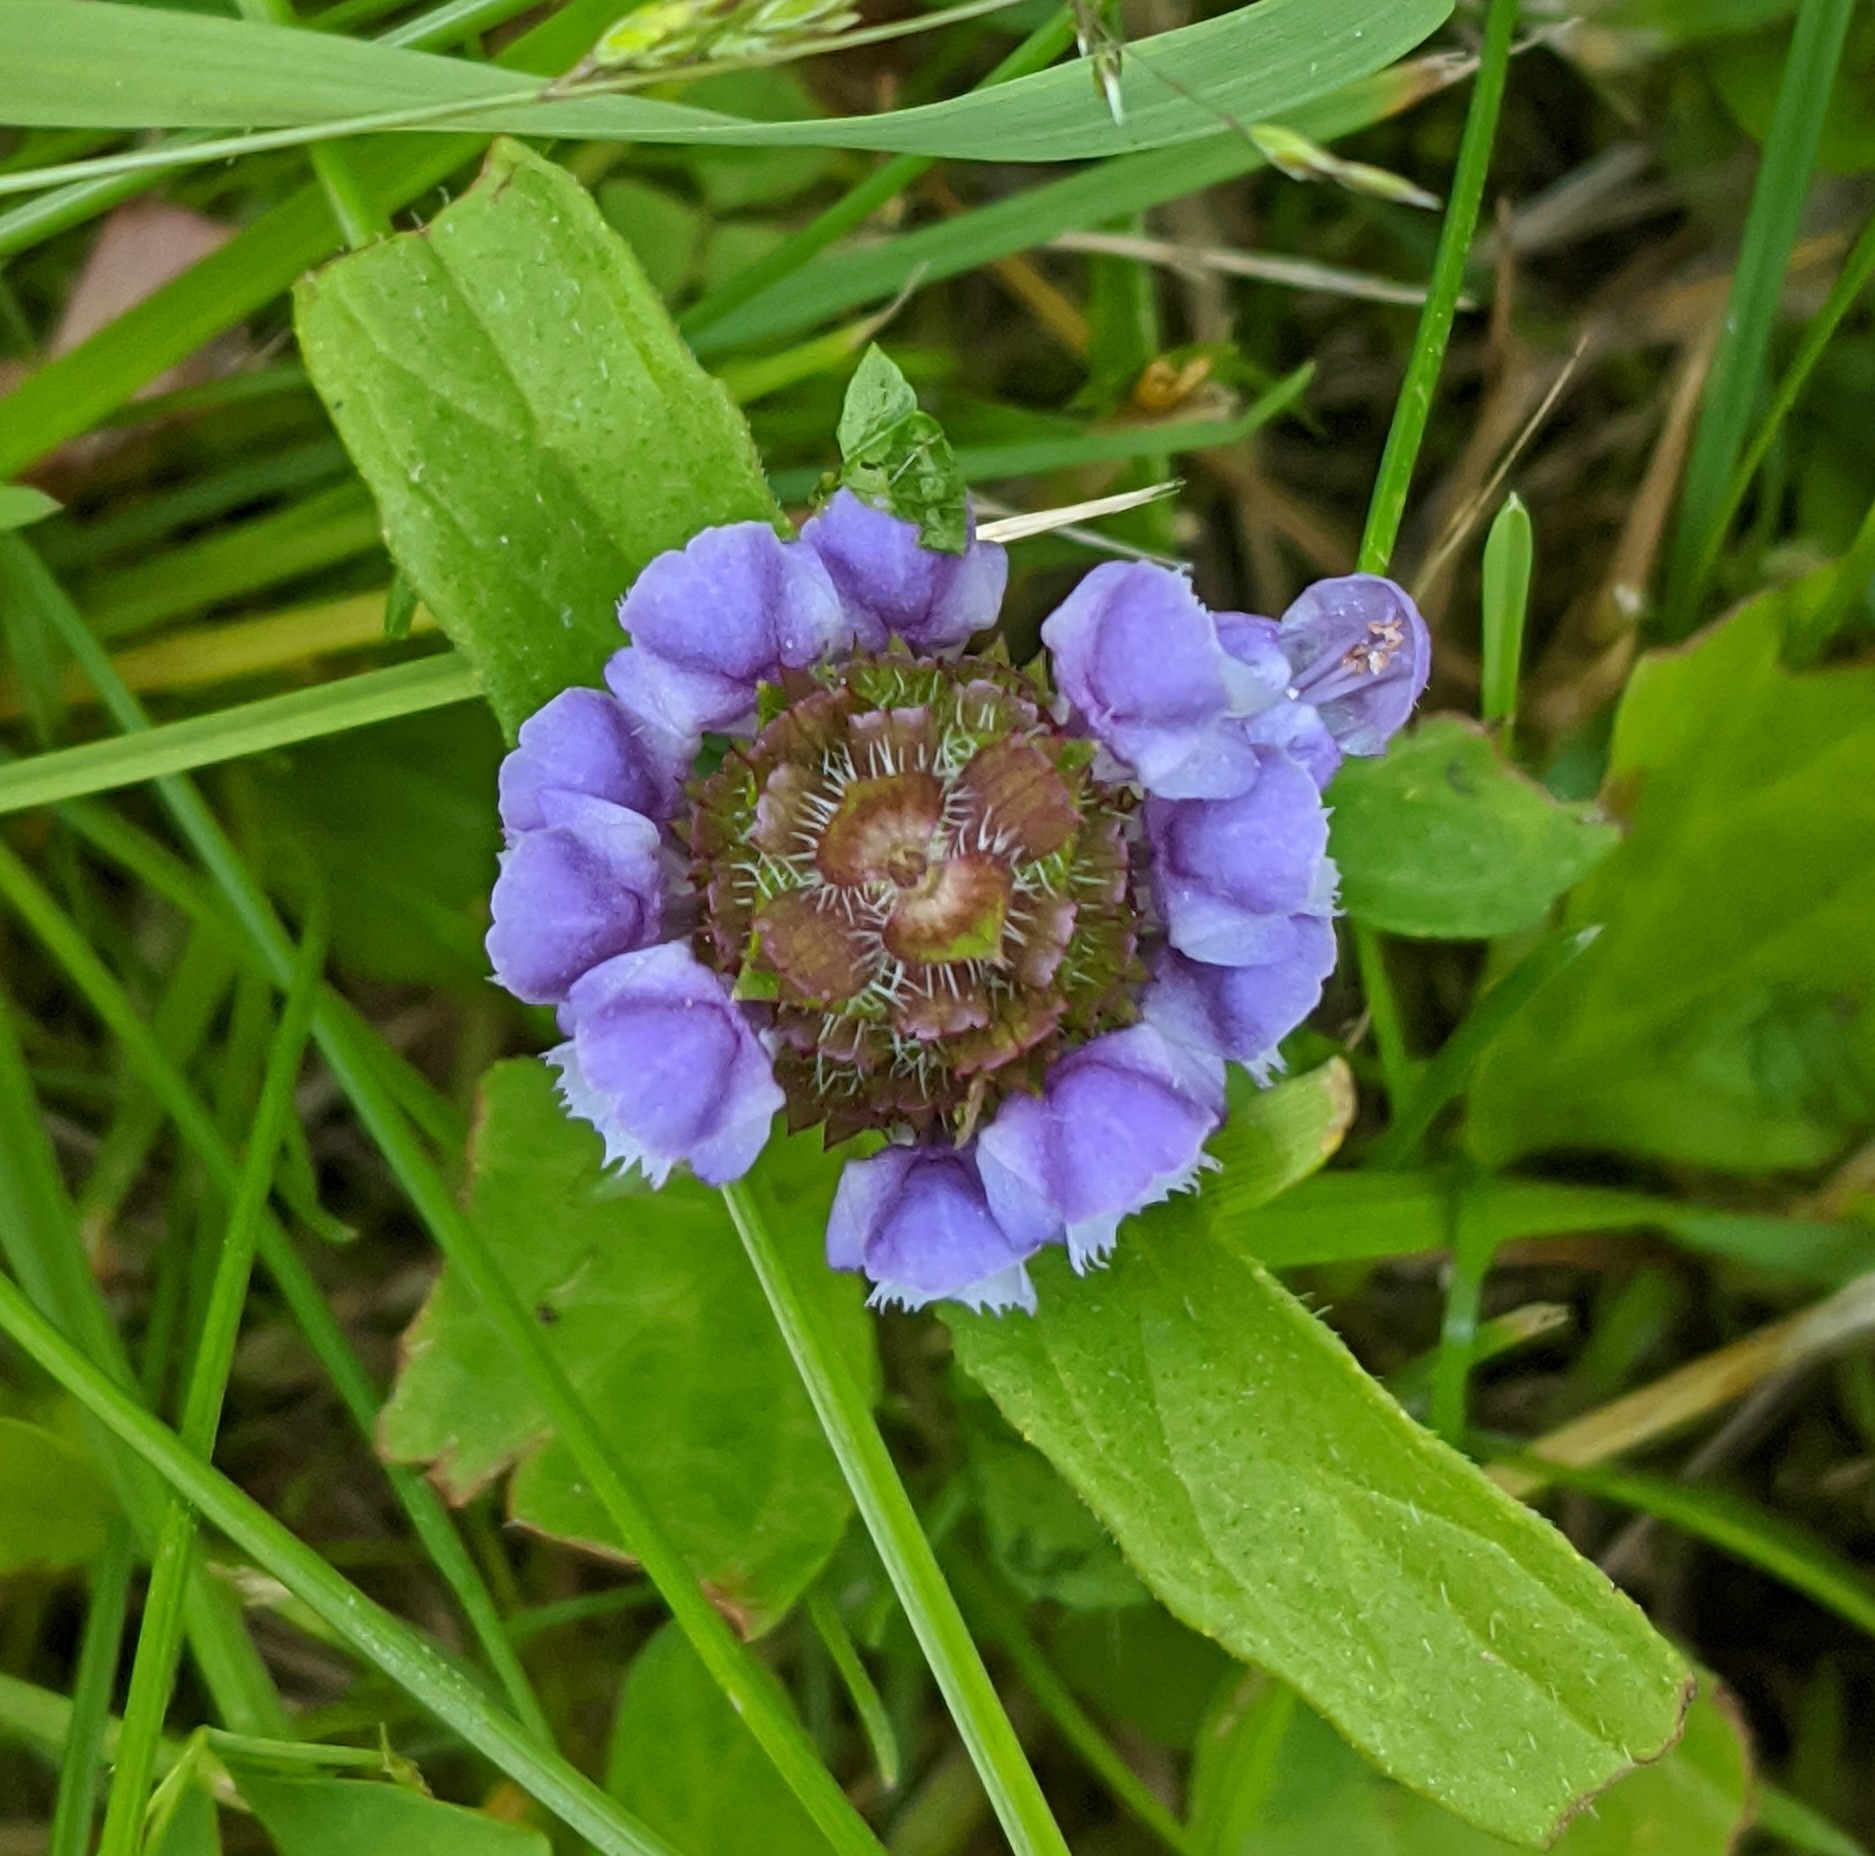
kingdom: Plantae
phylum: Tracheophyta
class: Magnoliopsida
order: Lamiales
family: Lamiaceae
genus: Prunella
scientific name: Prunella vulgaris
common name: Heal-all
